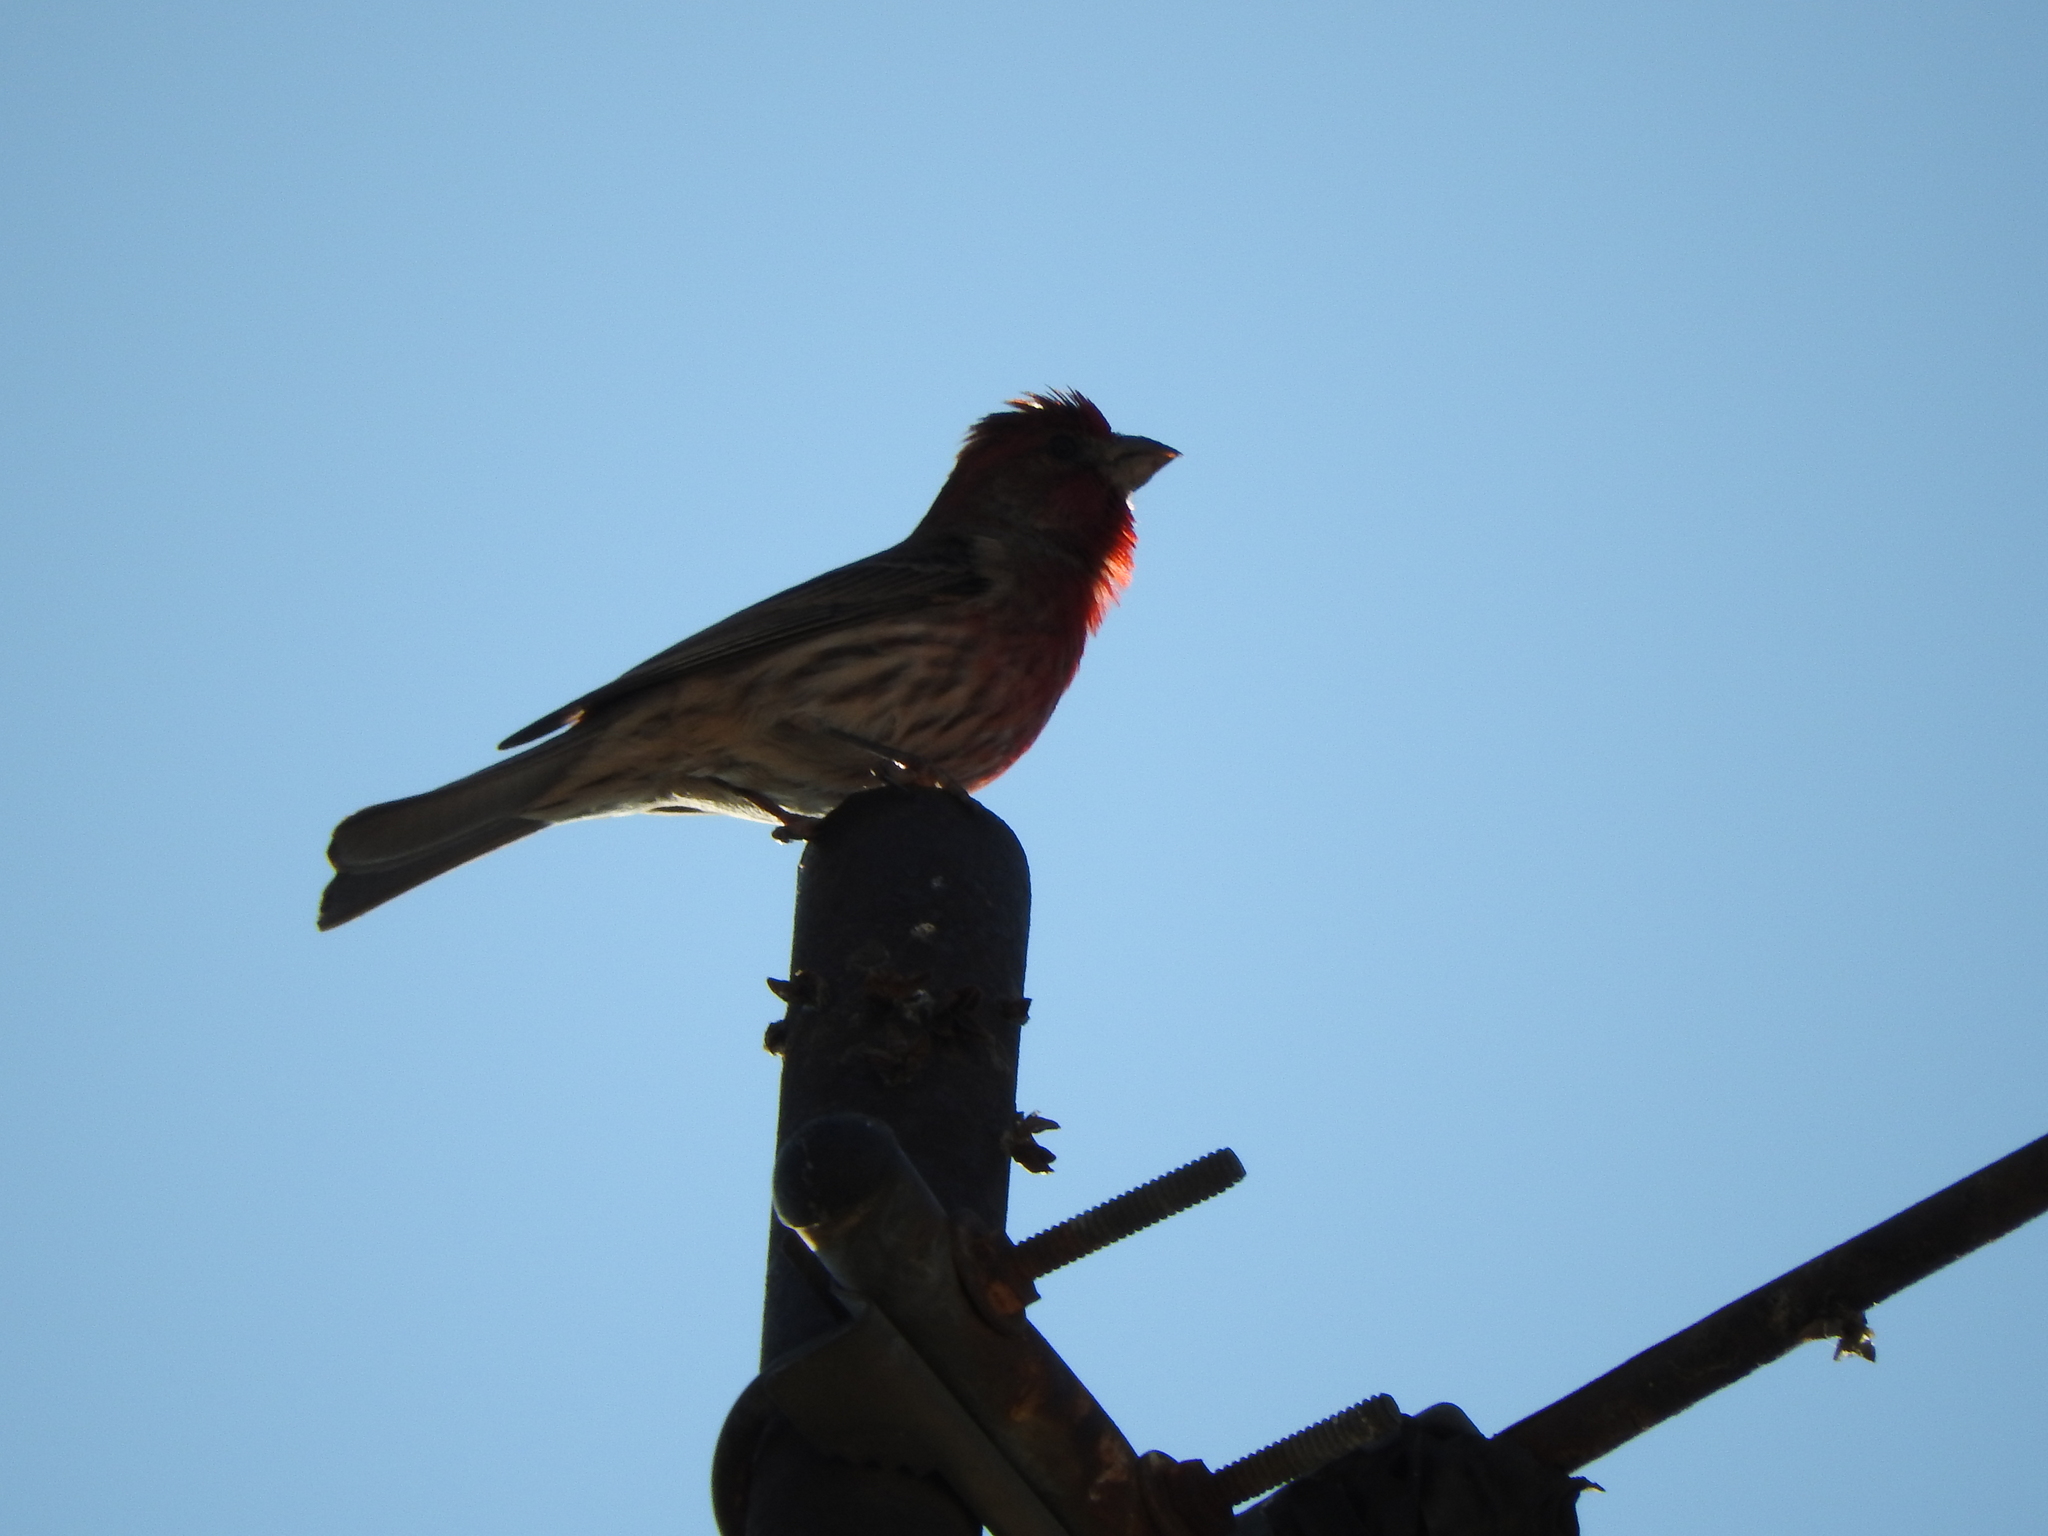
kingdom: Animalia
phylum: Chordata
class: Aves
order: Passeriformes
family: Fringillidae
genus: Haemorhous
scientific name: Haemorhous mexicanus
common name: House finch
